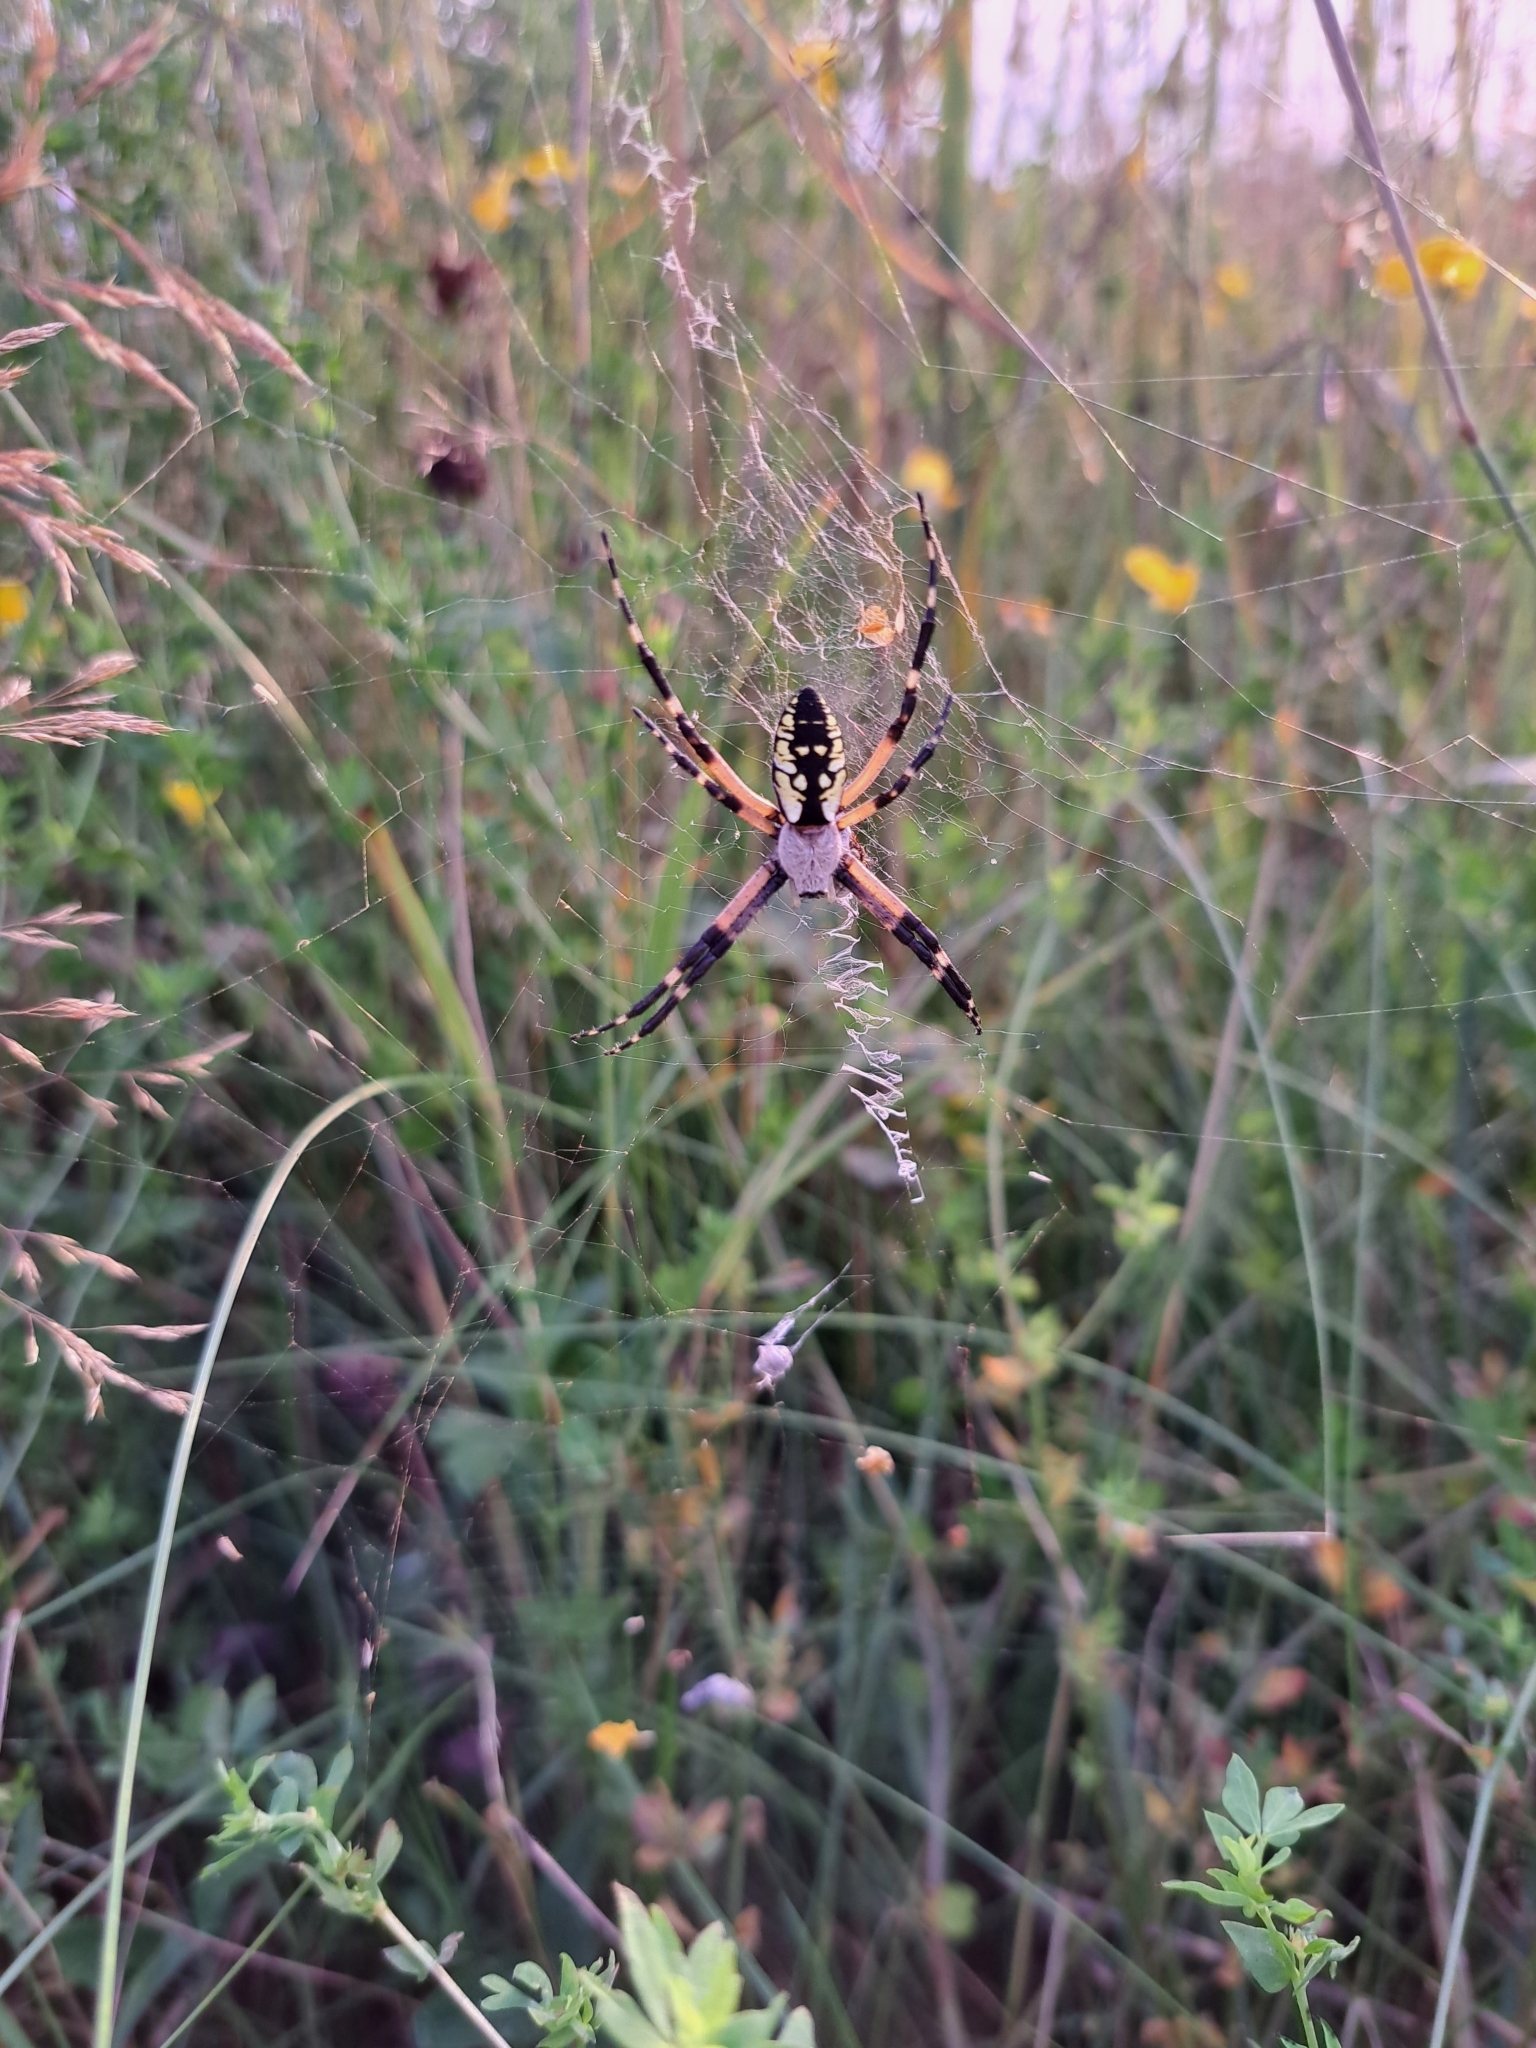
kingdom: Animalia
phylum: Arthropoda
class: Arachnida
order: Araneae
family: Araneidae
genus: Argiope
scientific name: Argiope aurantia
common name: Orb weavers
